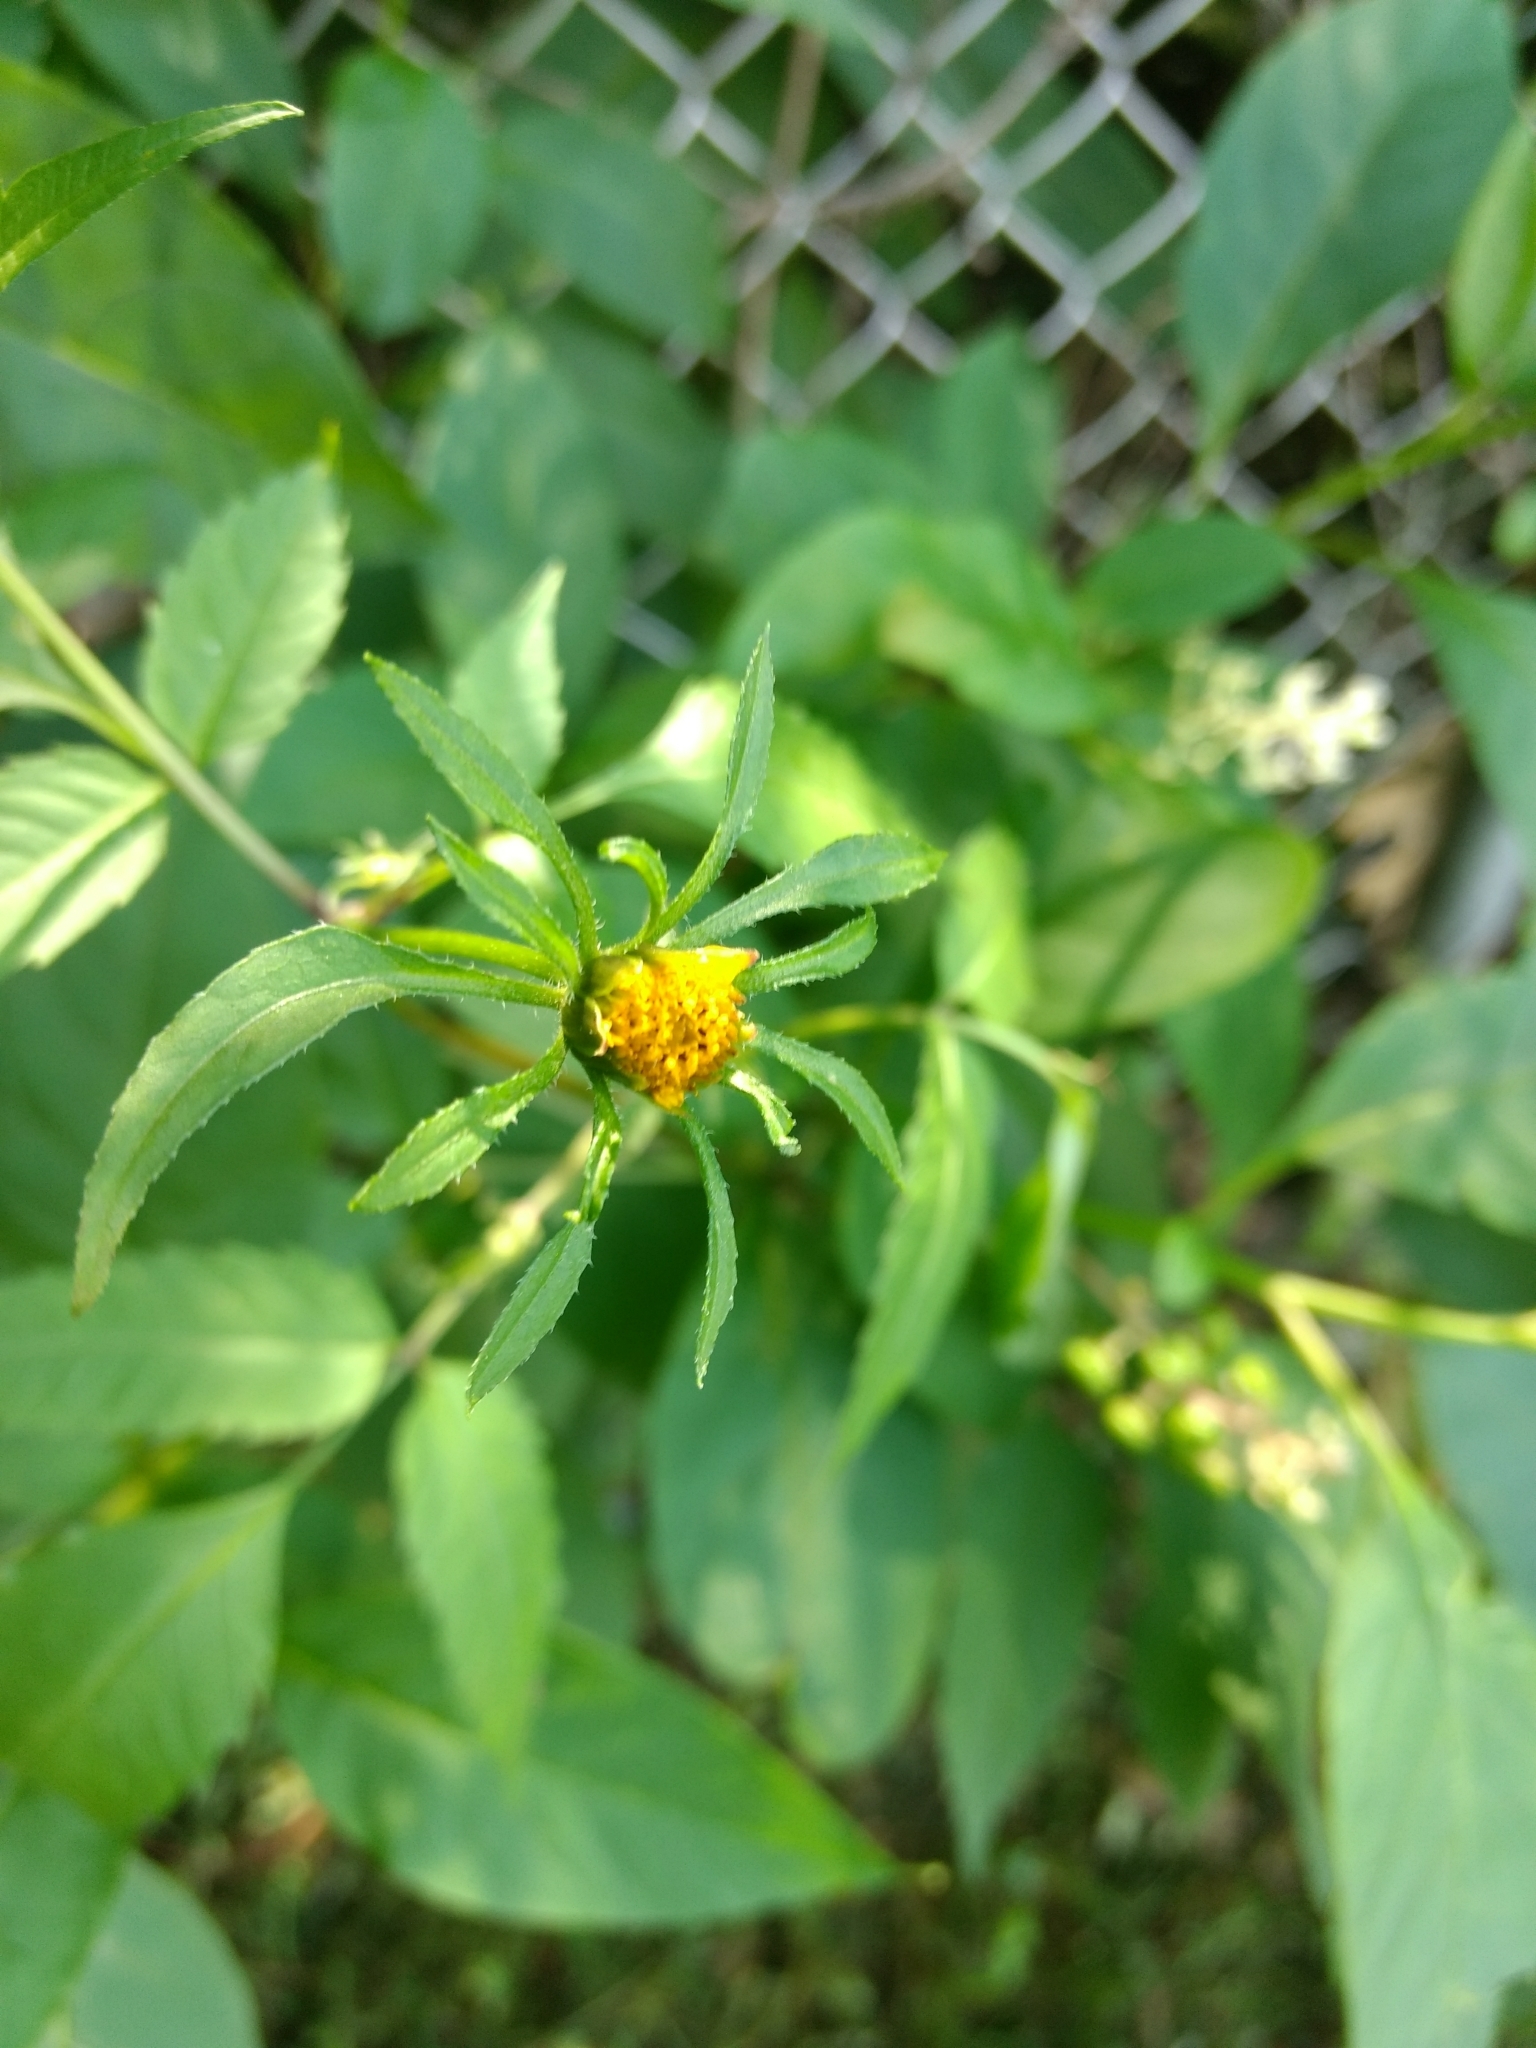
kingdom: Plantae
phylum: Tracheophyta
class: Magnoliopsida
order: Asterales
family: Asteraceae
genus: Bidens
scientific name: Bidens frondosa
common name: Beggarticks
